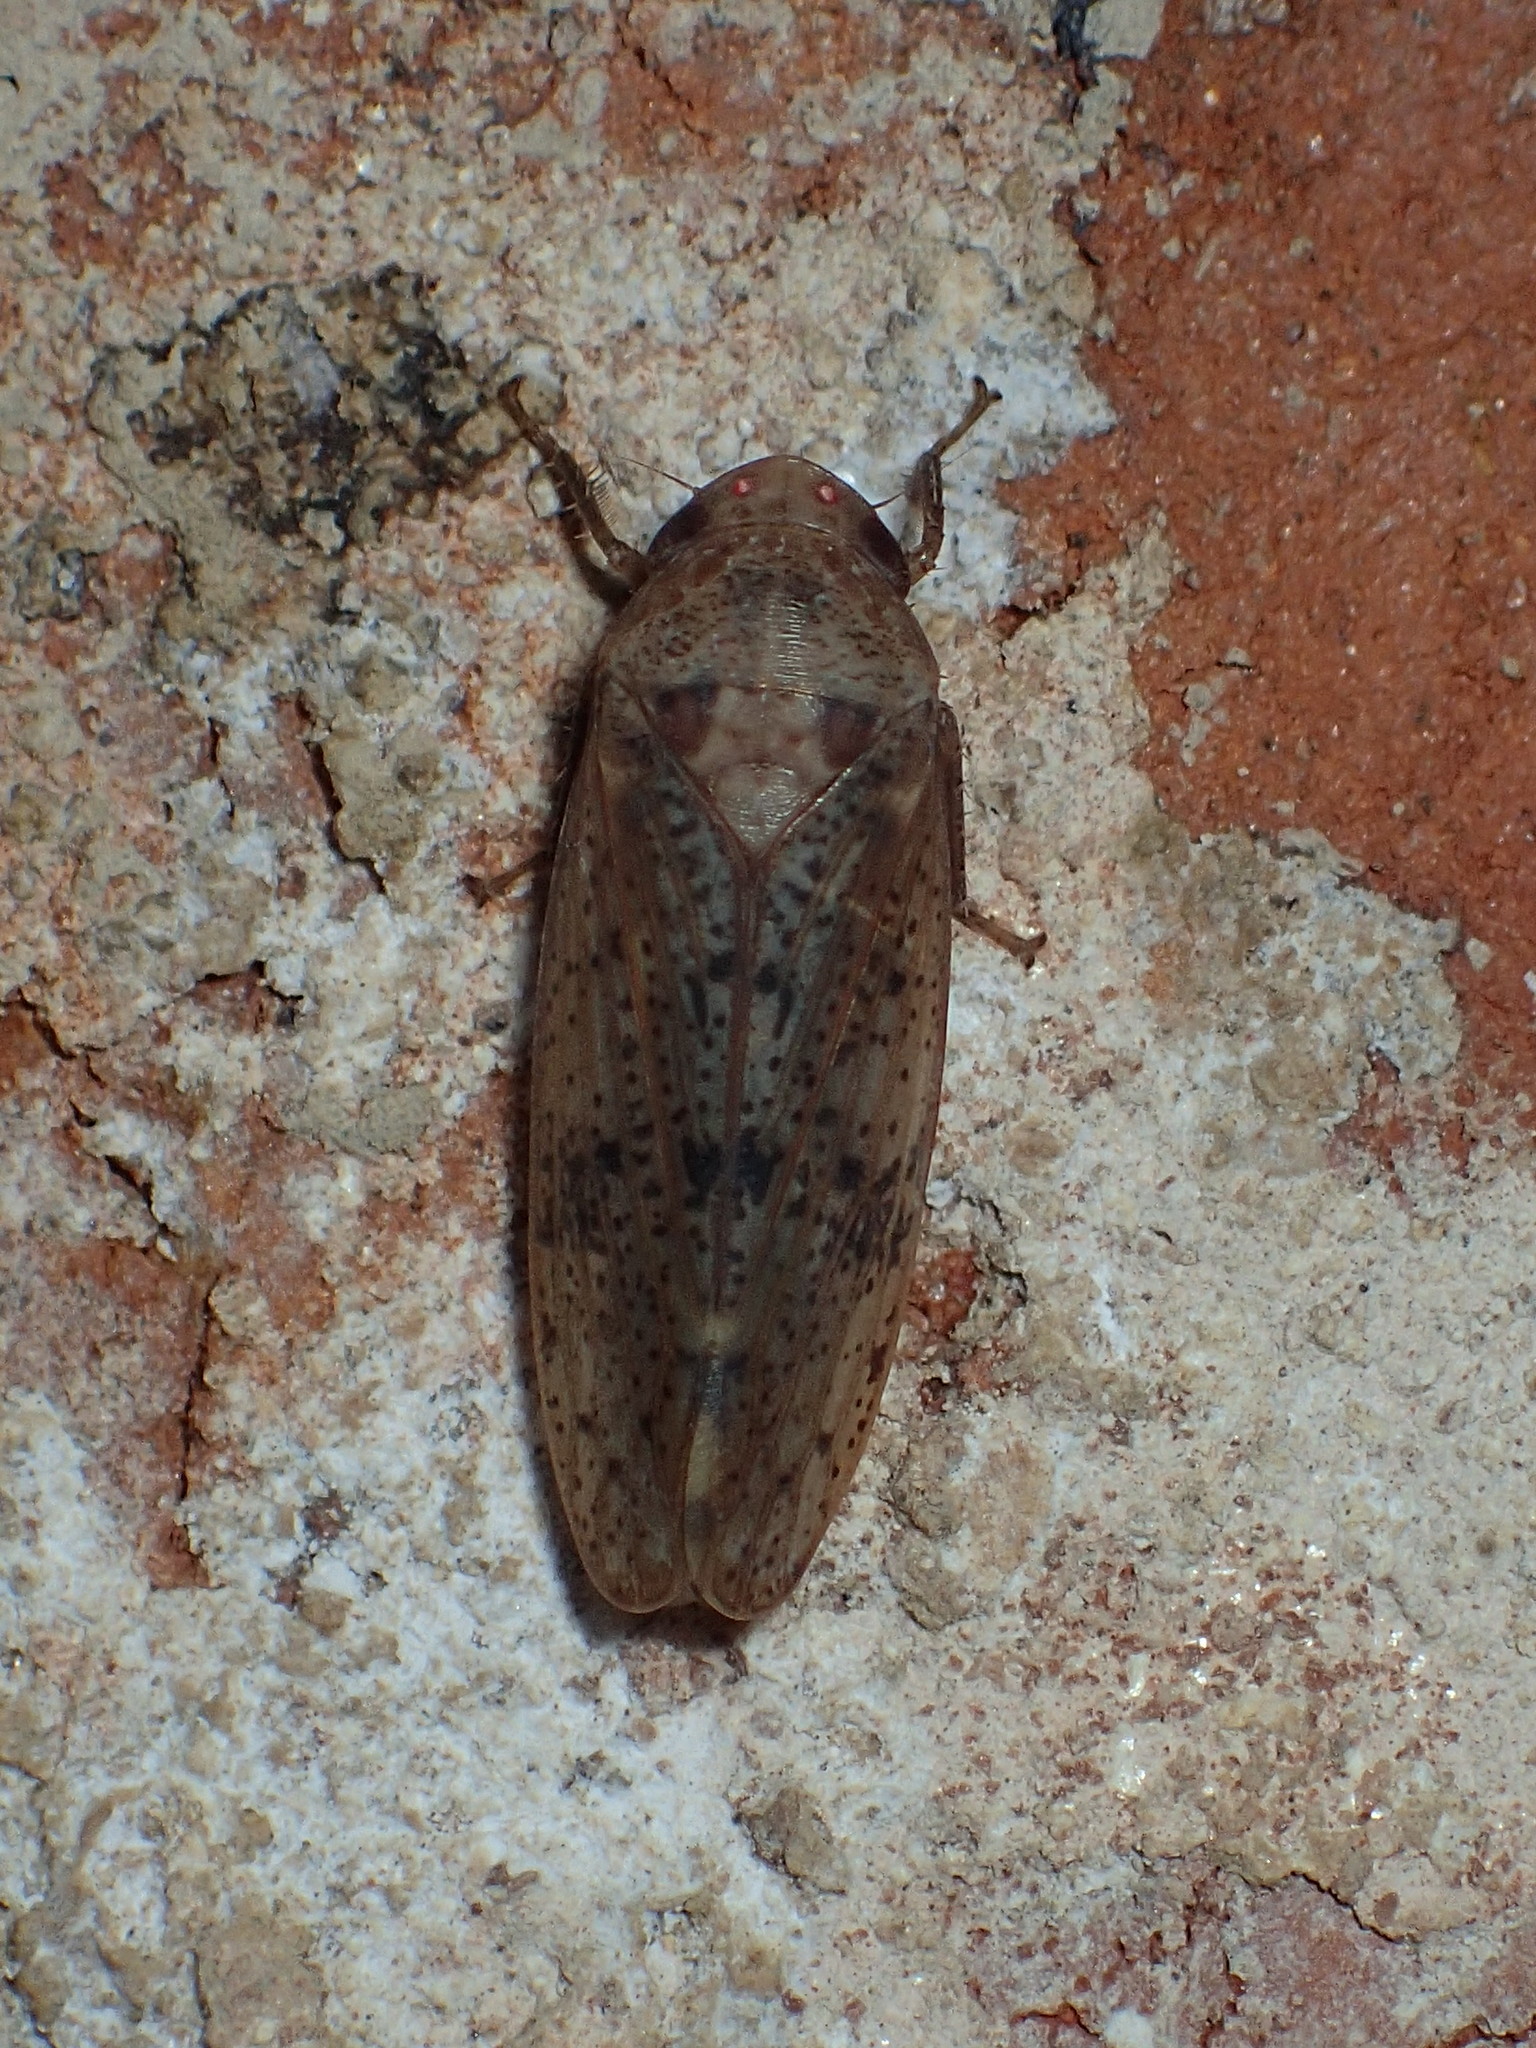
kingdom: Animalia
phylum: Arthropoda
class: Insecta
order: Hemiptera
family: Cicadellidae
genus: Ponana
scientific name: Ponana puncticollis
